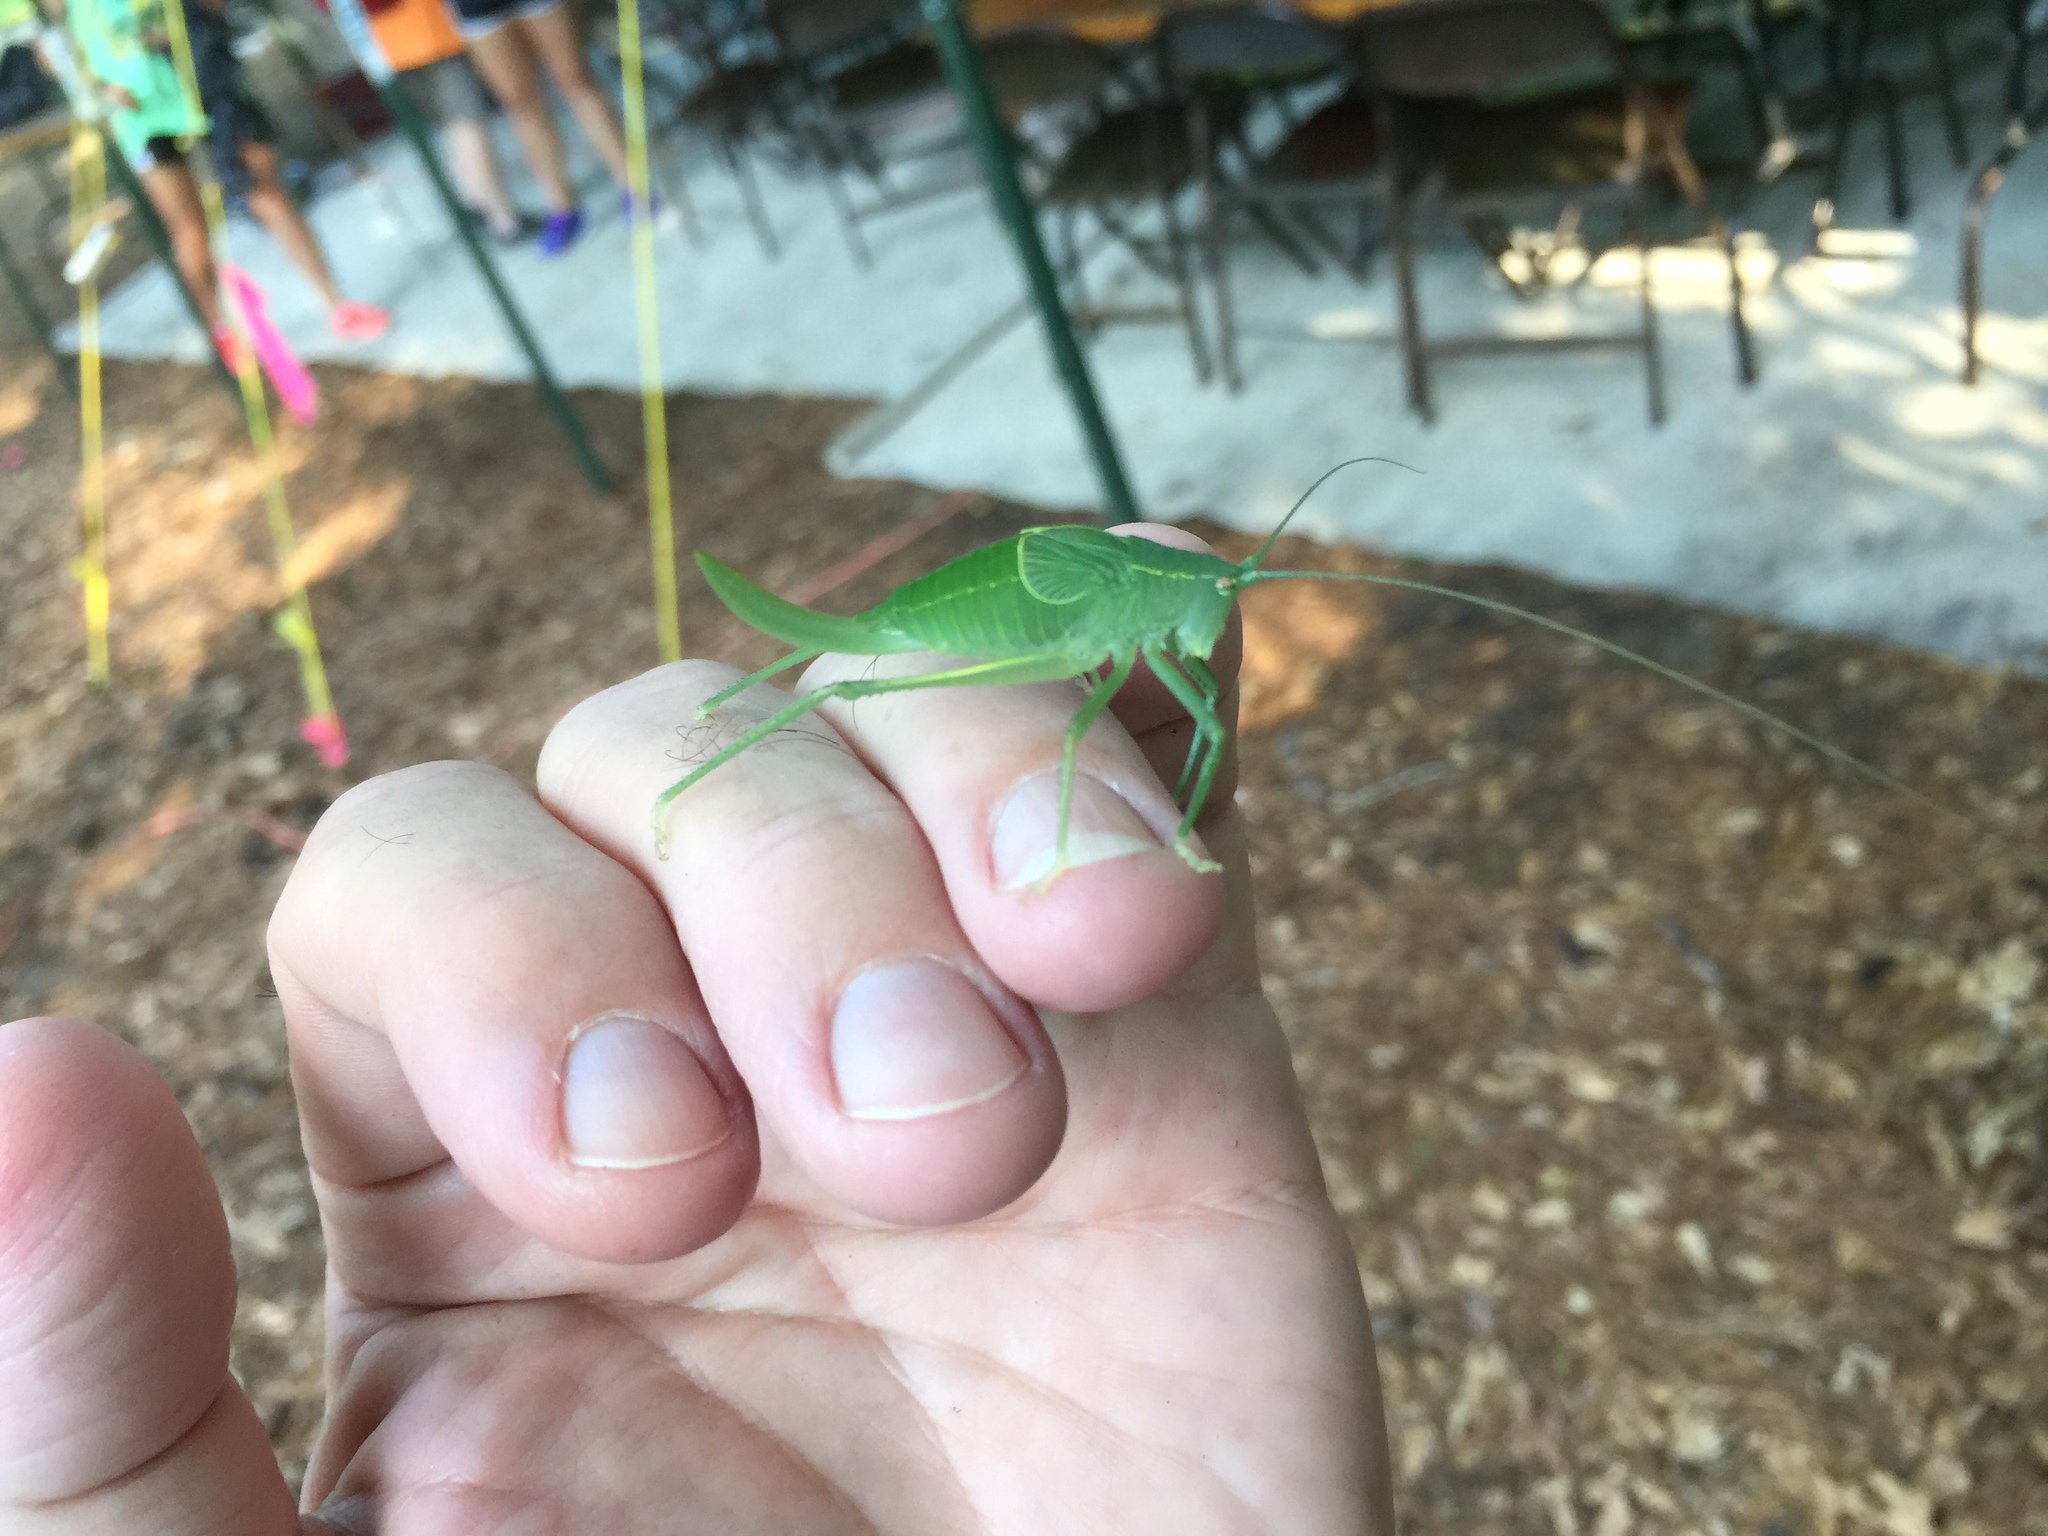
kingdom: Animalia
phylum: Arthropoda
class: Insecta
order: Orthoptera
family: Tettigoniidae
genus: Pterophylla
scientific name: Pterophylla camellifolia
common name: Common true katydid
